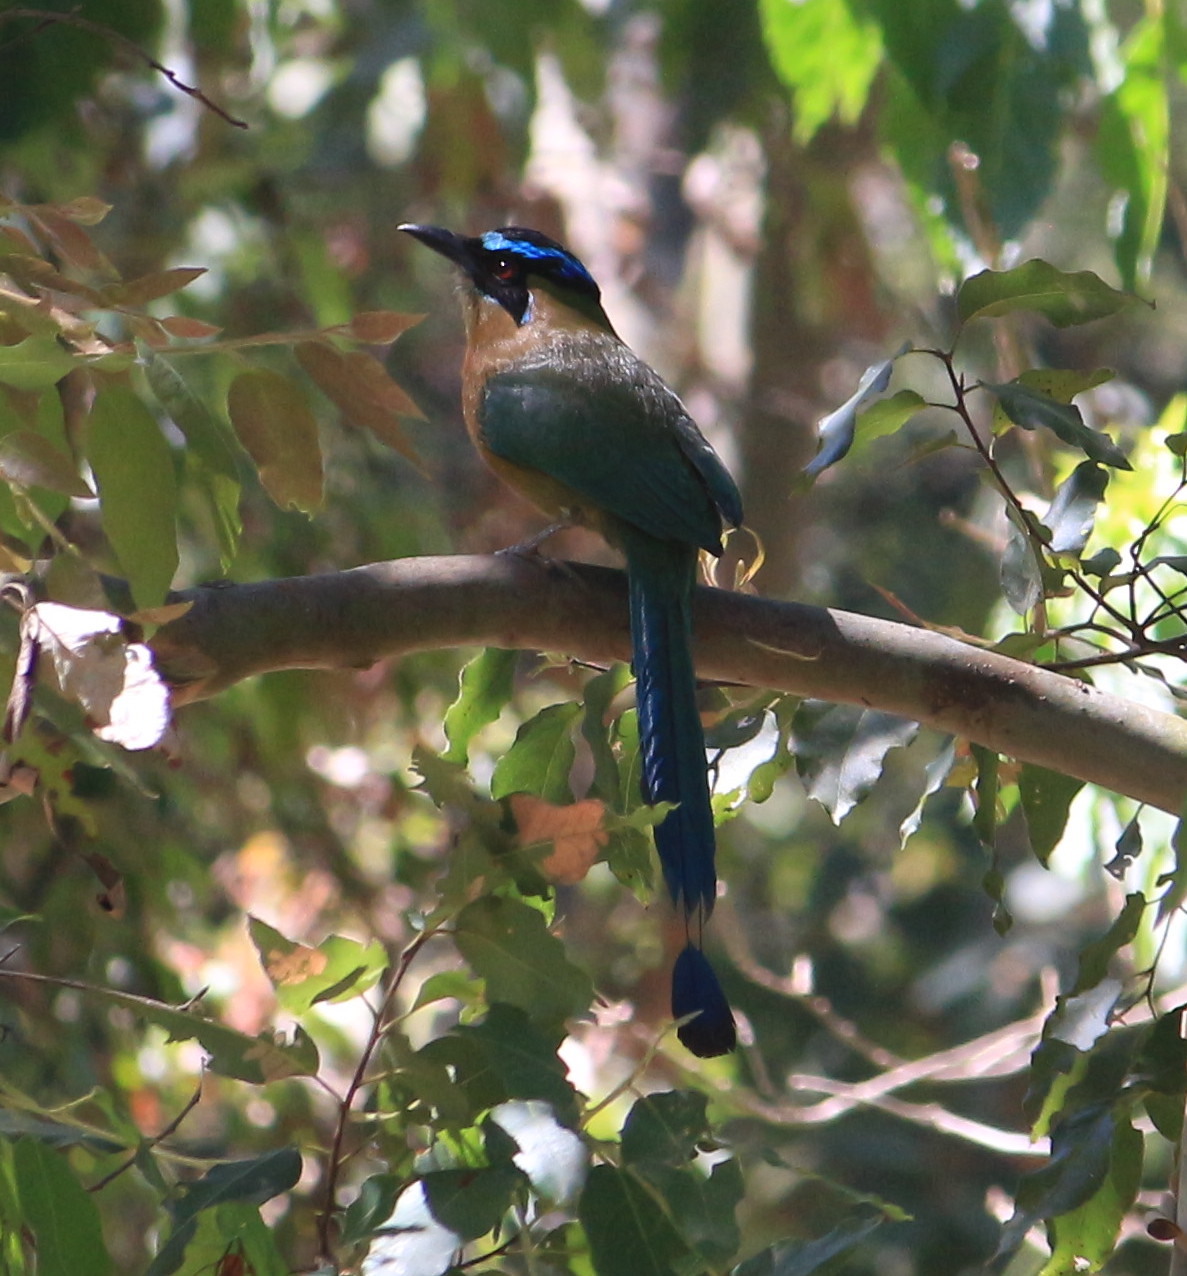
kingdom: Animalia
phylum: Chordata
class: Aves
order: Coraciiformes
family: Momotidae
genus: Momotus
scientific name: Momotus lessonii
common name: Lesson's motmot
